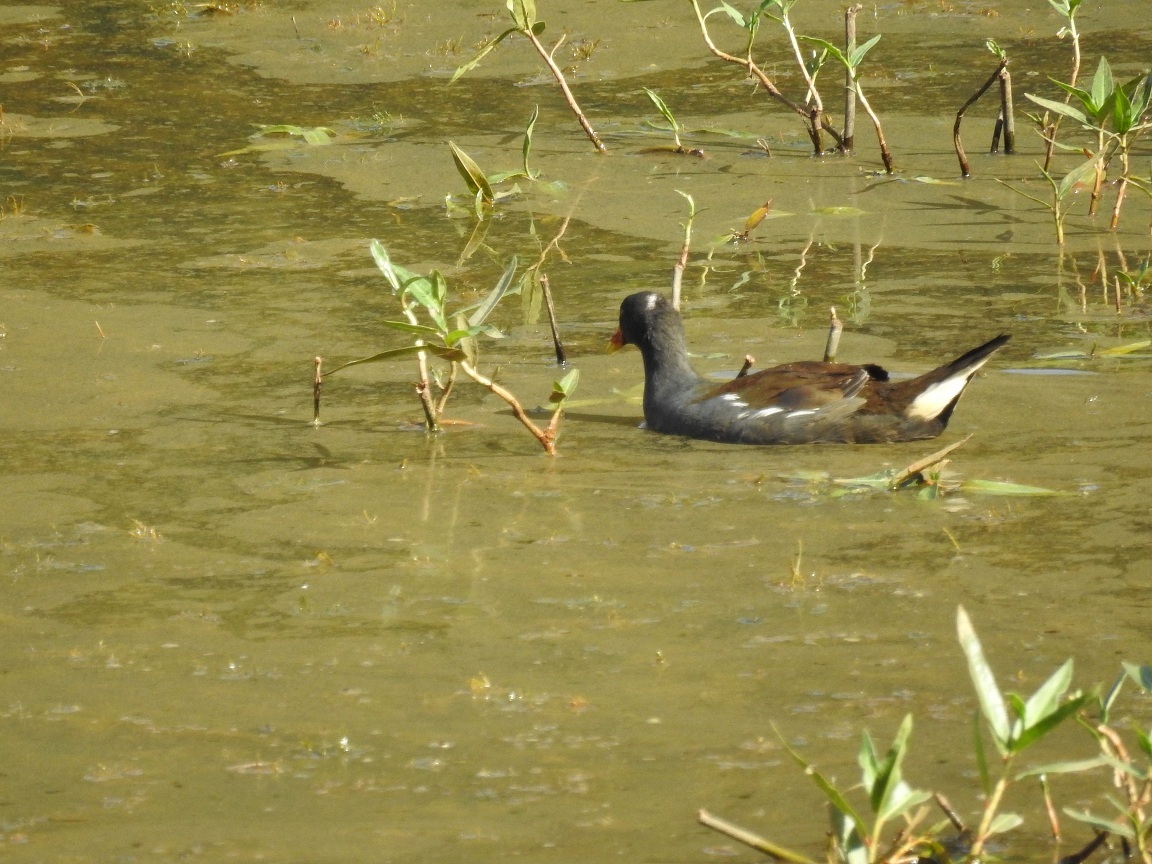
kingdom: Animalia
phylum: Chordata
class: Aves
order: Gruiformes
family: Rallidae
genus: Gallinula
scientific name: Gallinula chloropus
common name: Common moorhen
